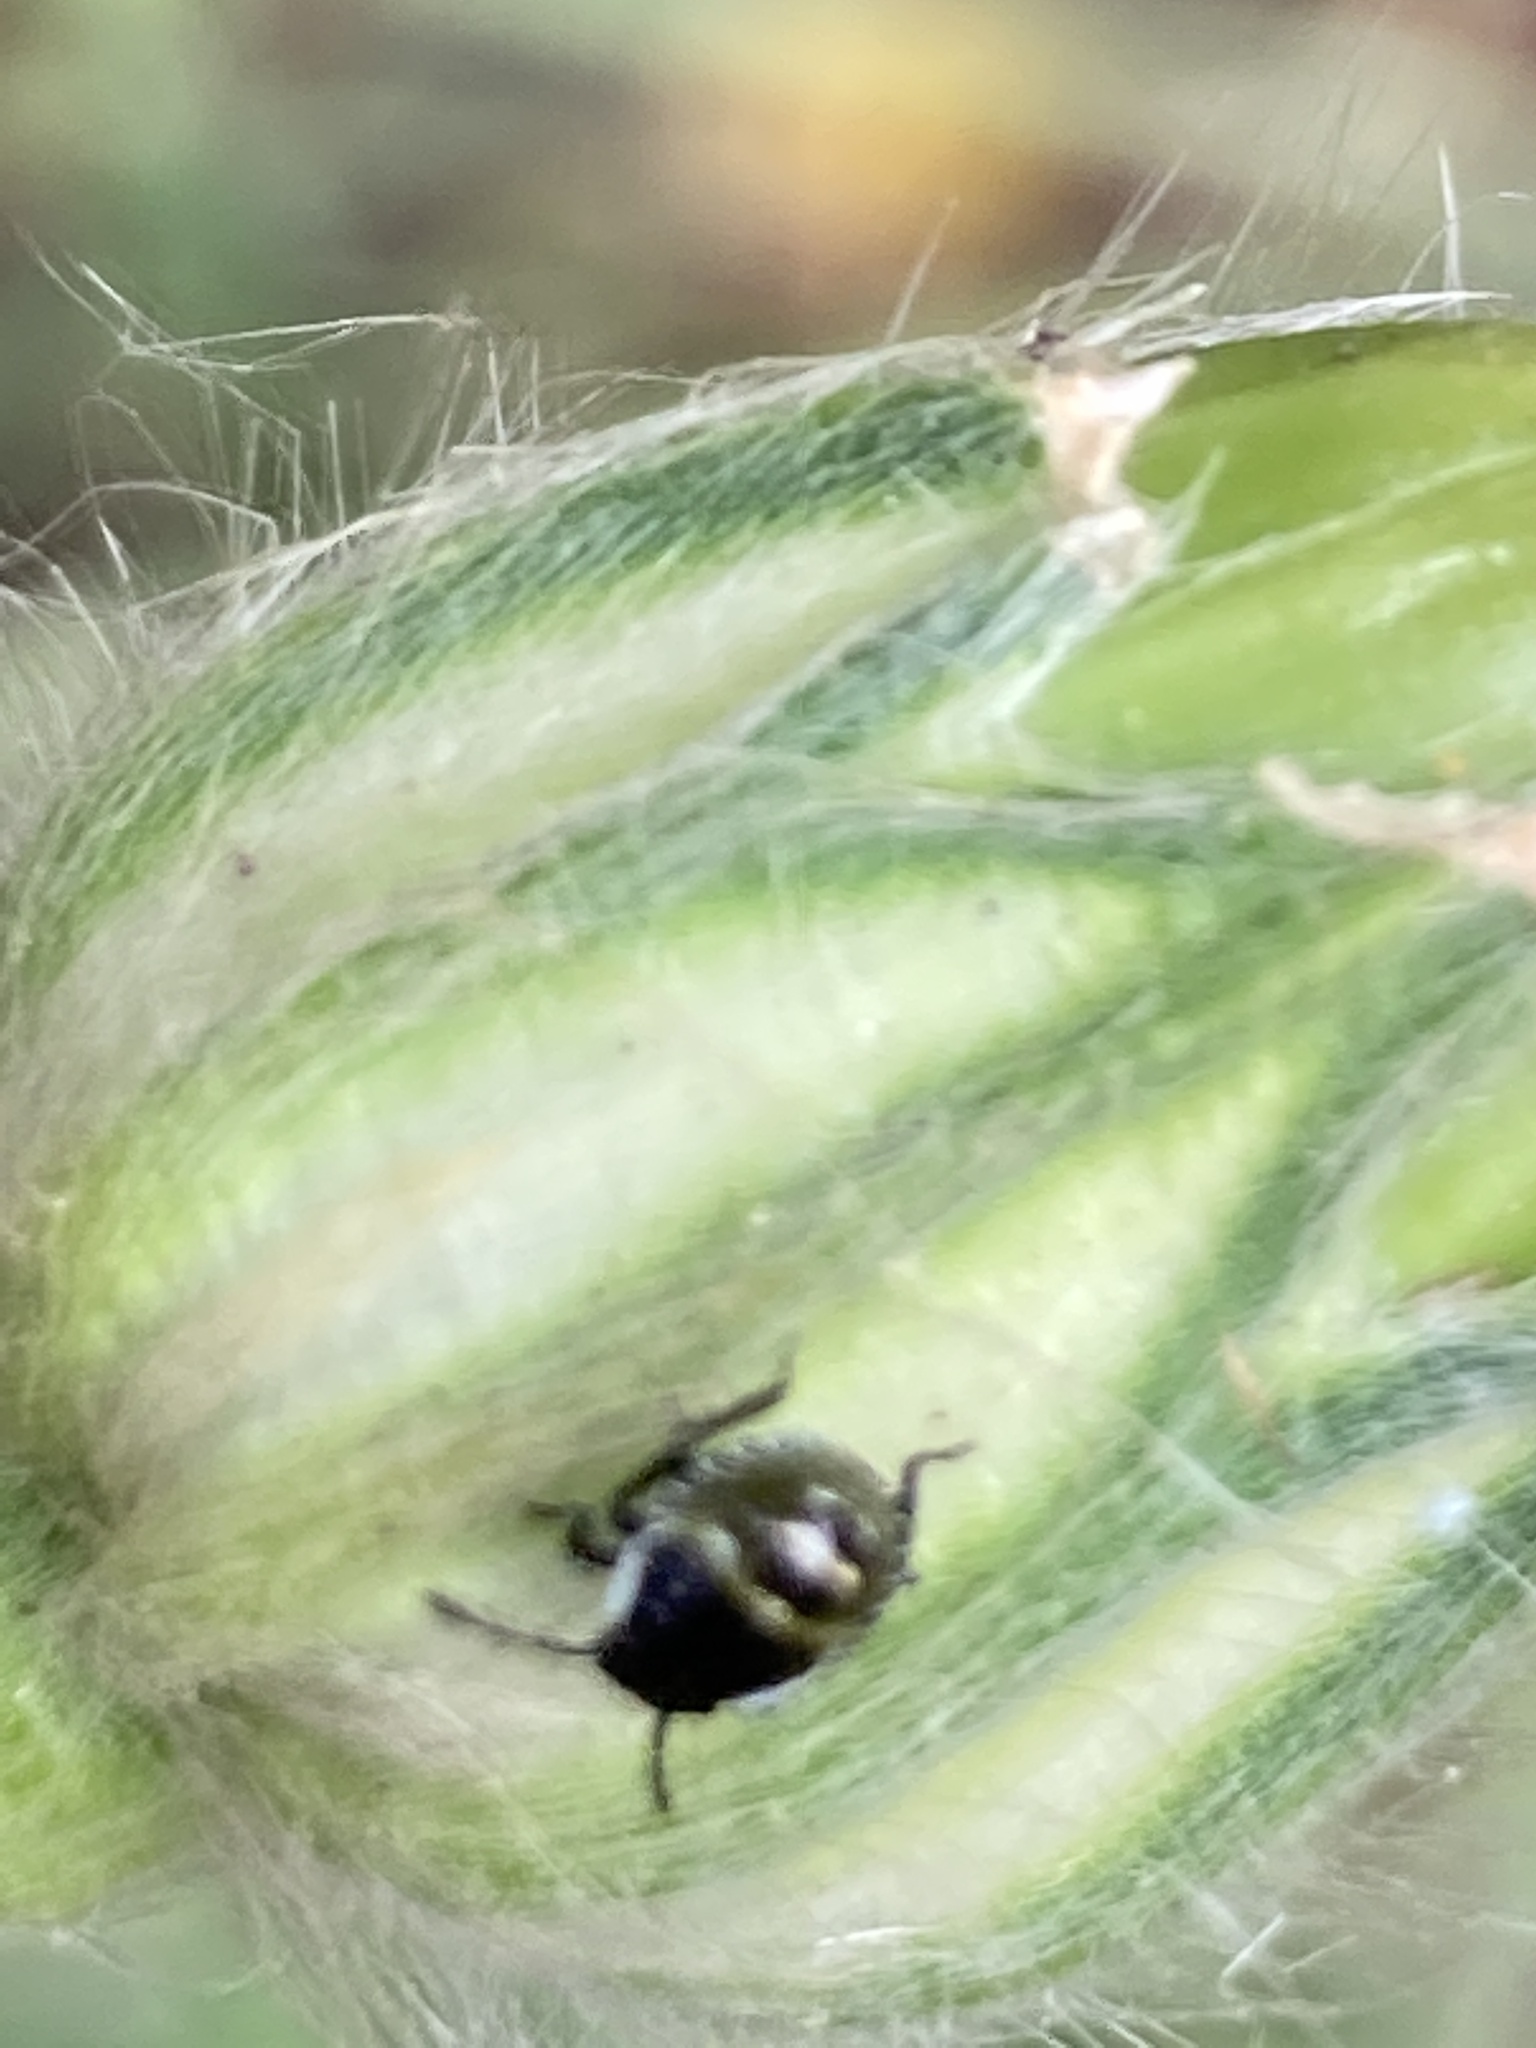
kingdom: Animalia
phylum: Arthropoda
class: Insecta
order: Hemiptera
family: Pentatomidae
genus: Palomena
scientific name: Palomena prasina
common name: Green shieldbug
